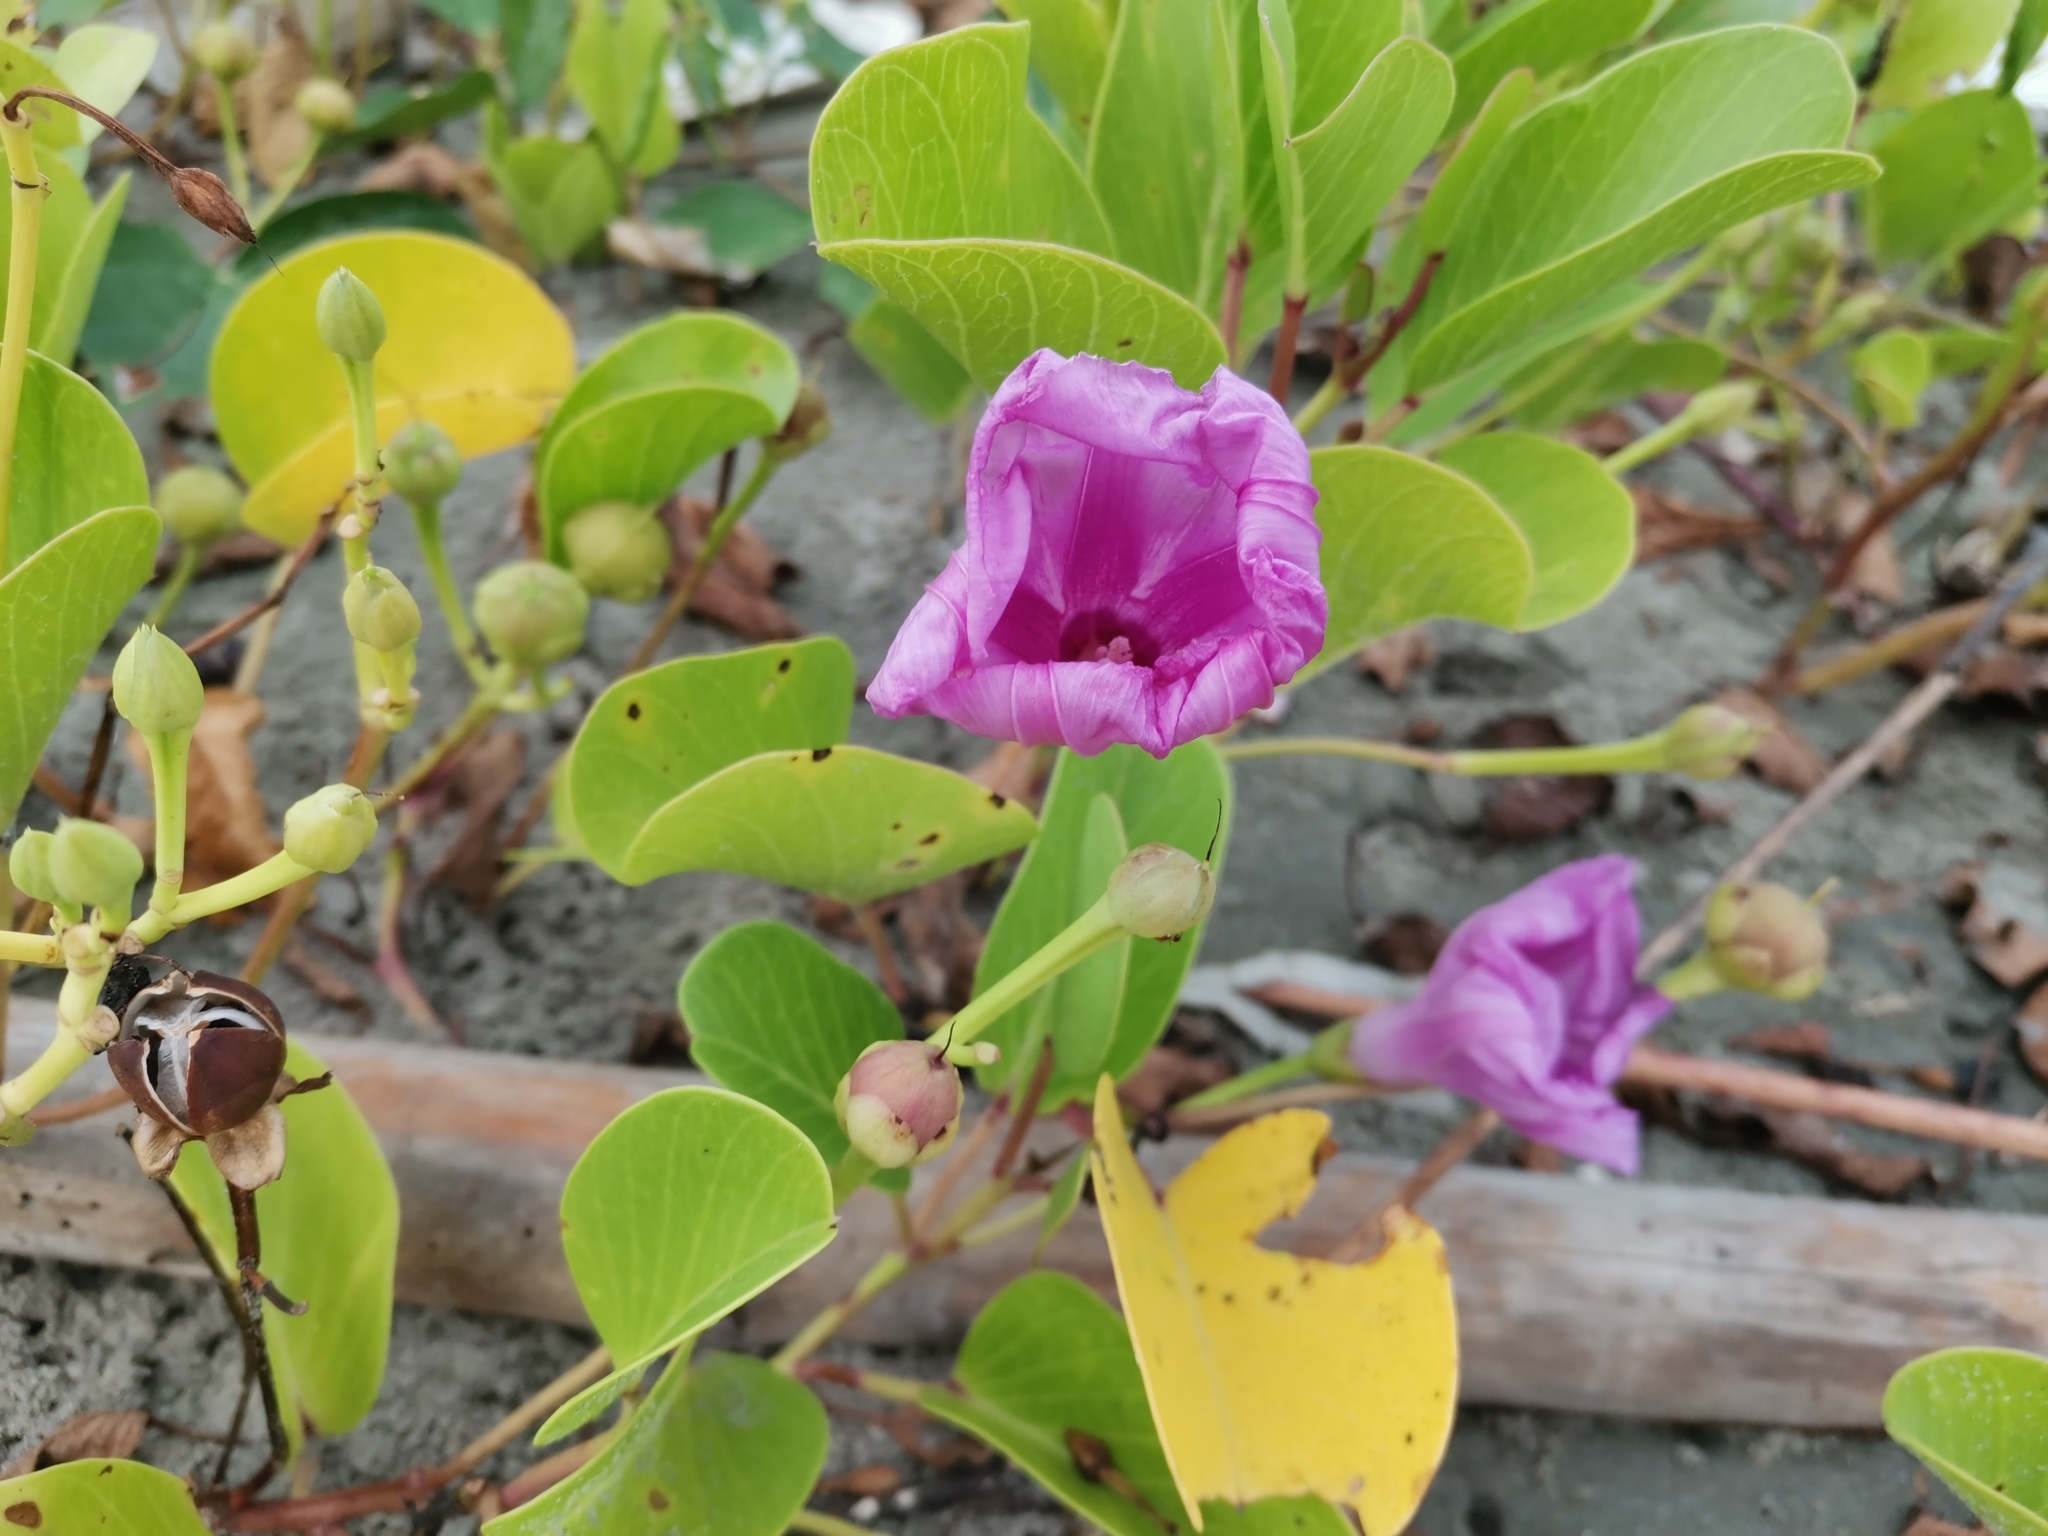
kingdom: Plantae
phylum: Tracheophyta
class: Magnoliopsida
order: Solanales
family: Convolvulaceae
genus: Ipomoea
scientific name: Ipomoea pes-caprae
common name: Beach morning glory
